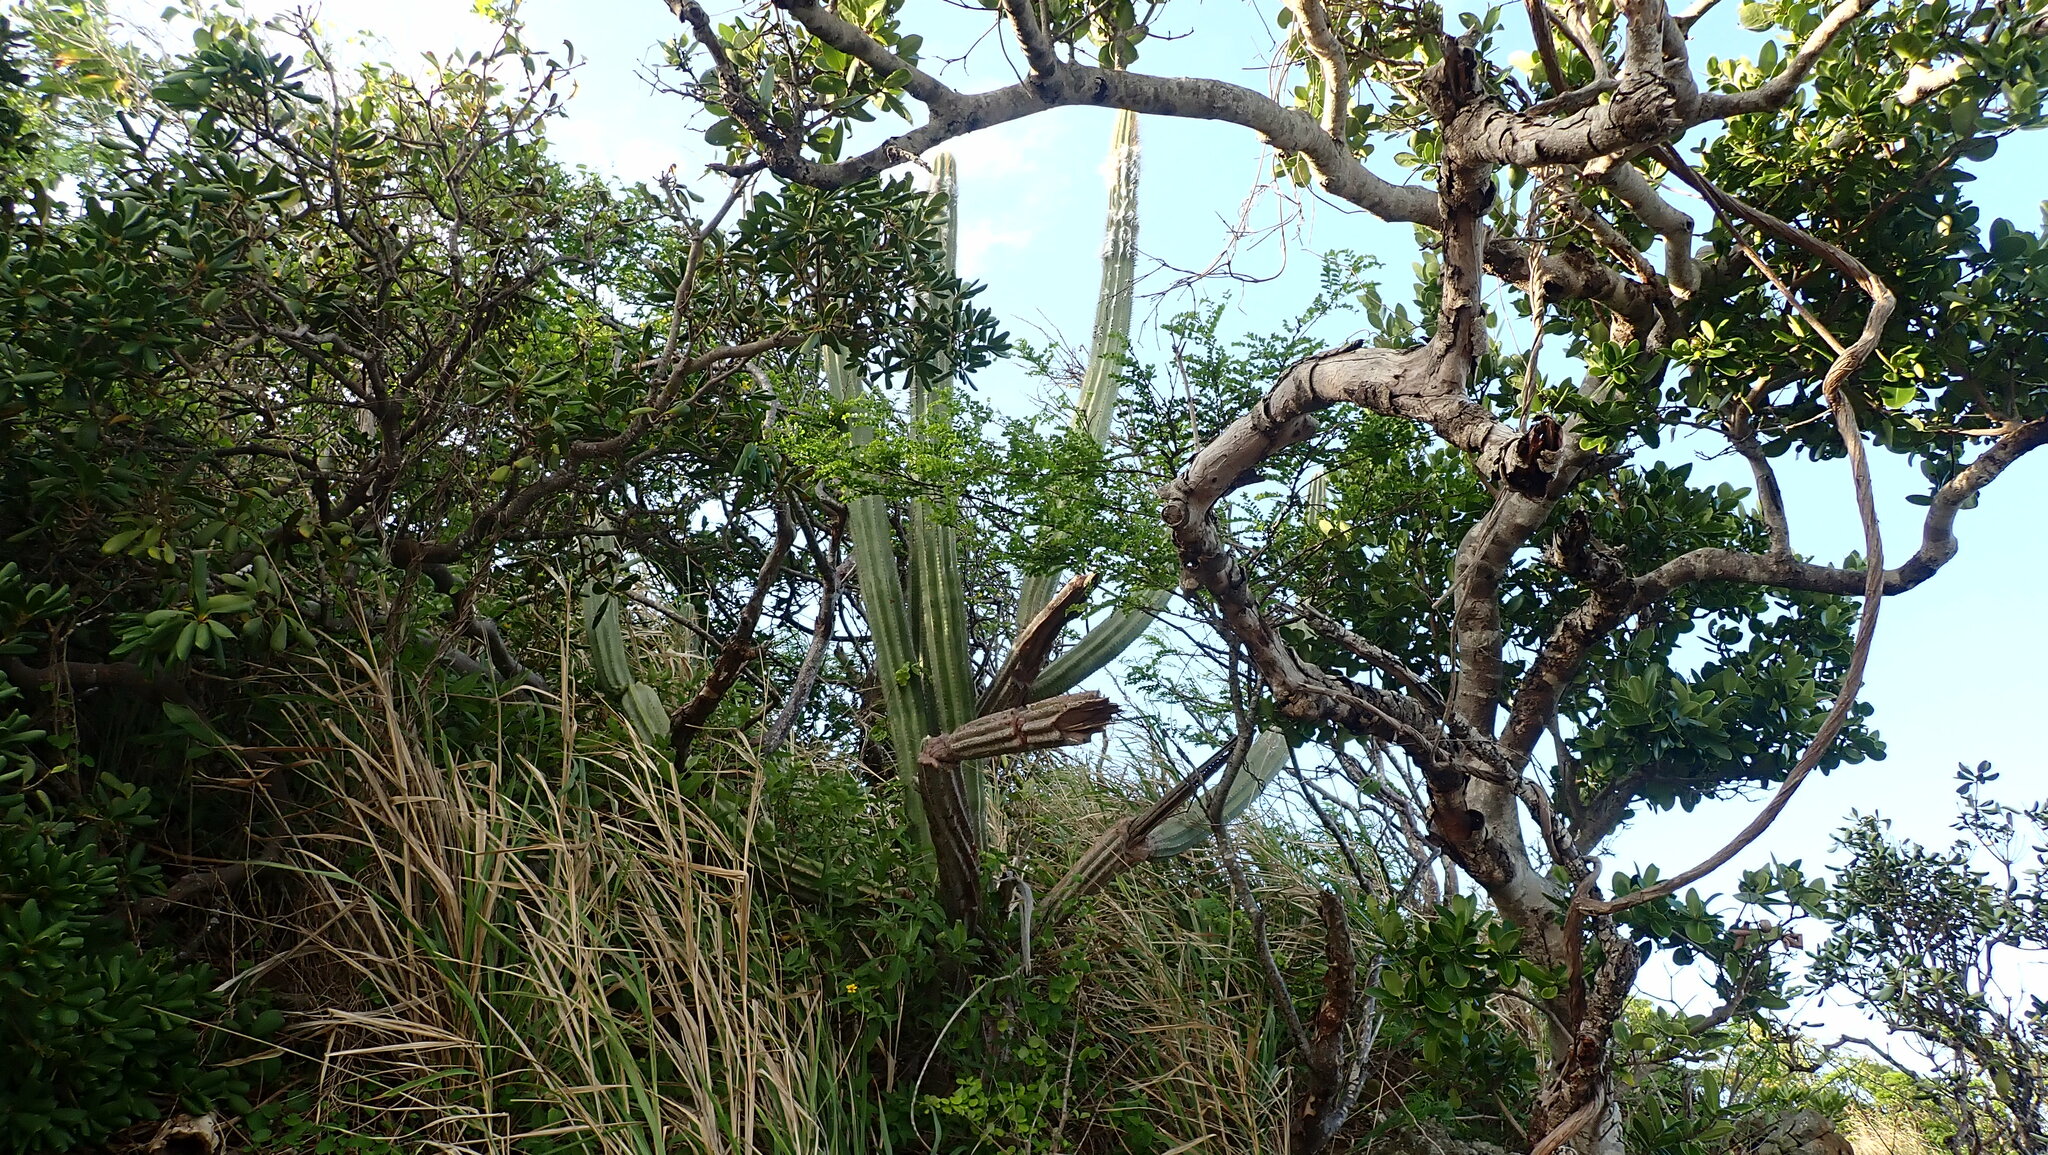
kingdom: Plantae
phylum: Tracheophyta
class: Magnoliopsida
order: Caryophyllales
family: Cactaceae
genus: Pilosocereus
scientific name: Pilosocereus armatus
